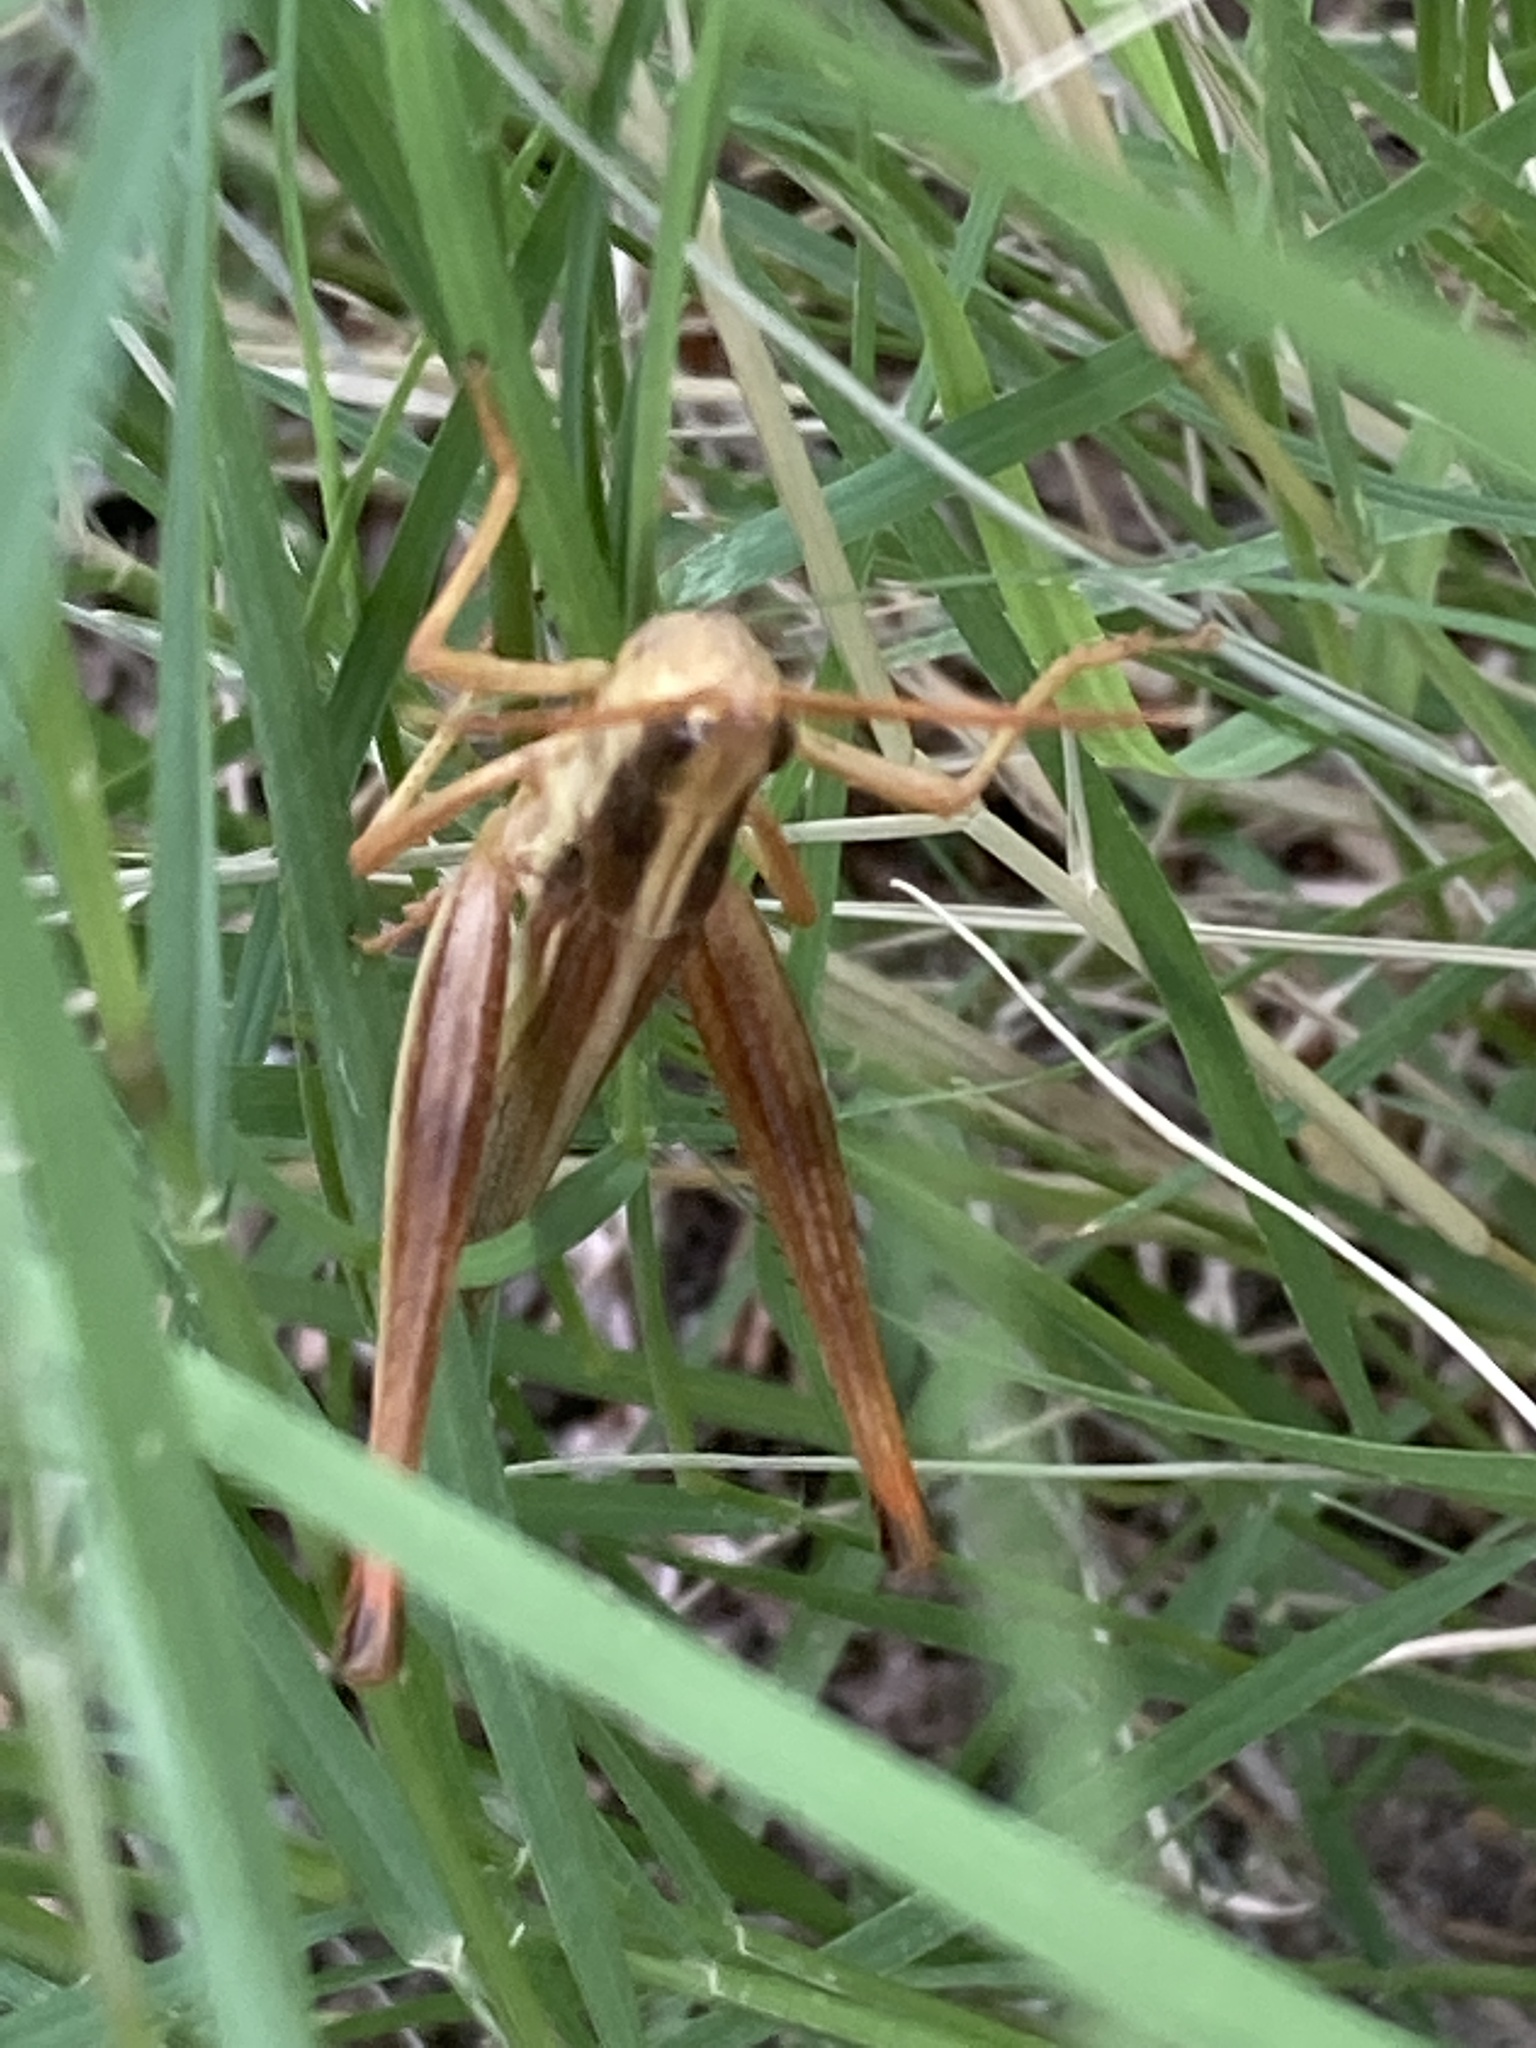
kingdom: Animalia
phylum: Arthropoda
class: Insecta
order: Orthoptera
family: Acrididae
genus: Mermiria
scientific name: Mermiria bivittata
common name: Two-striped mermiria grasshopper
